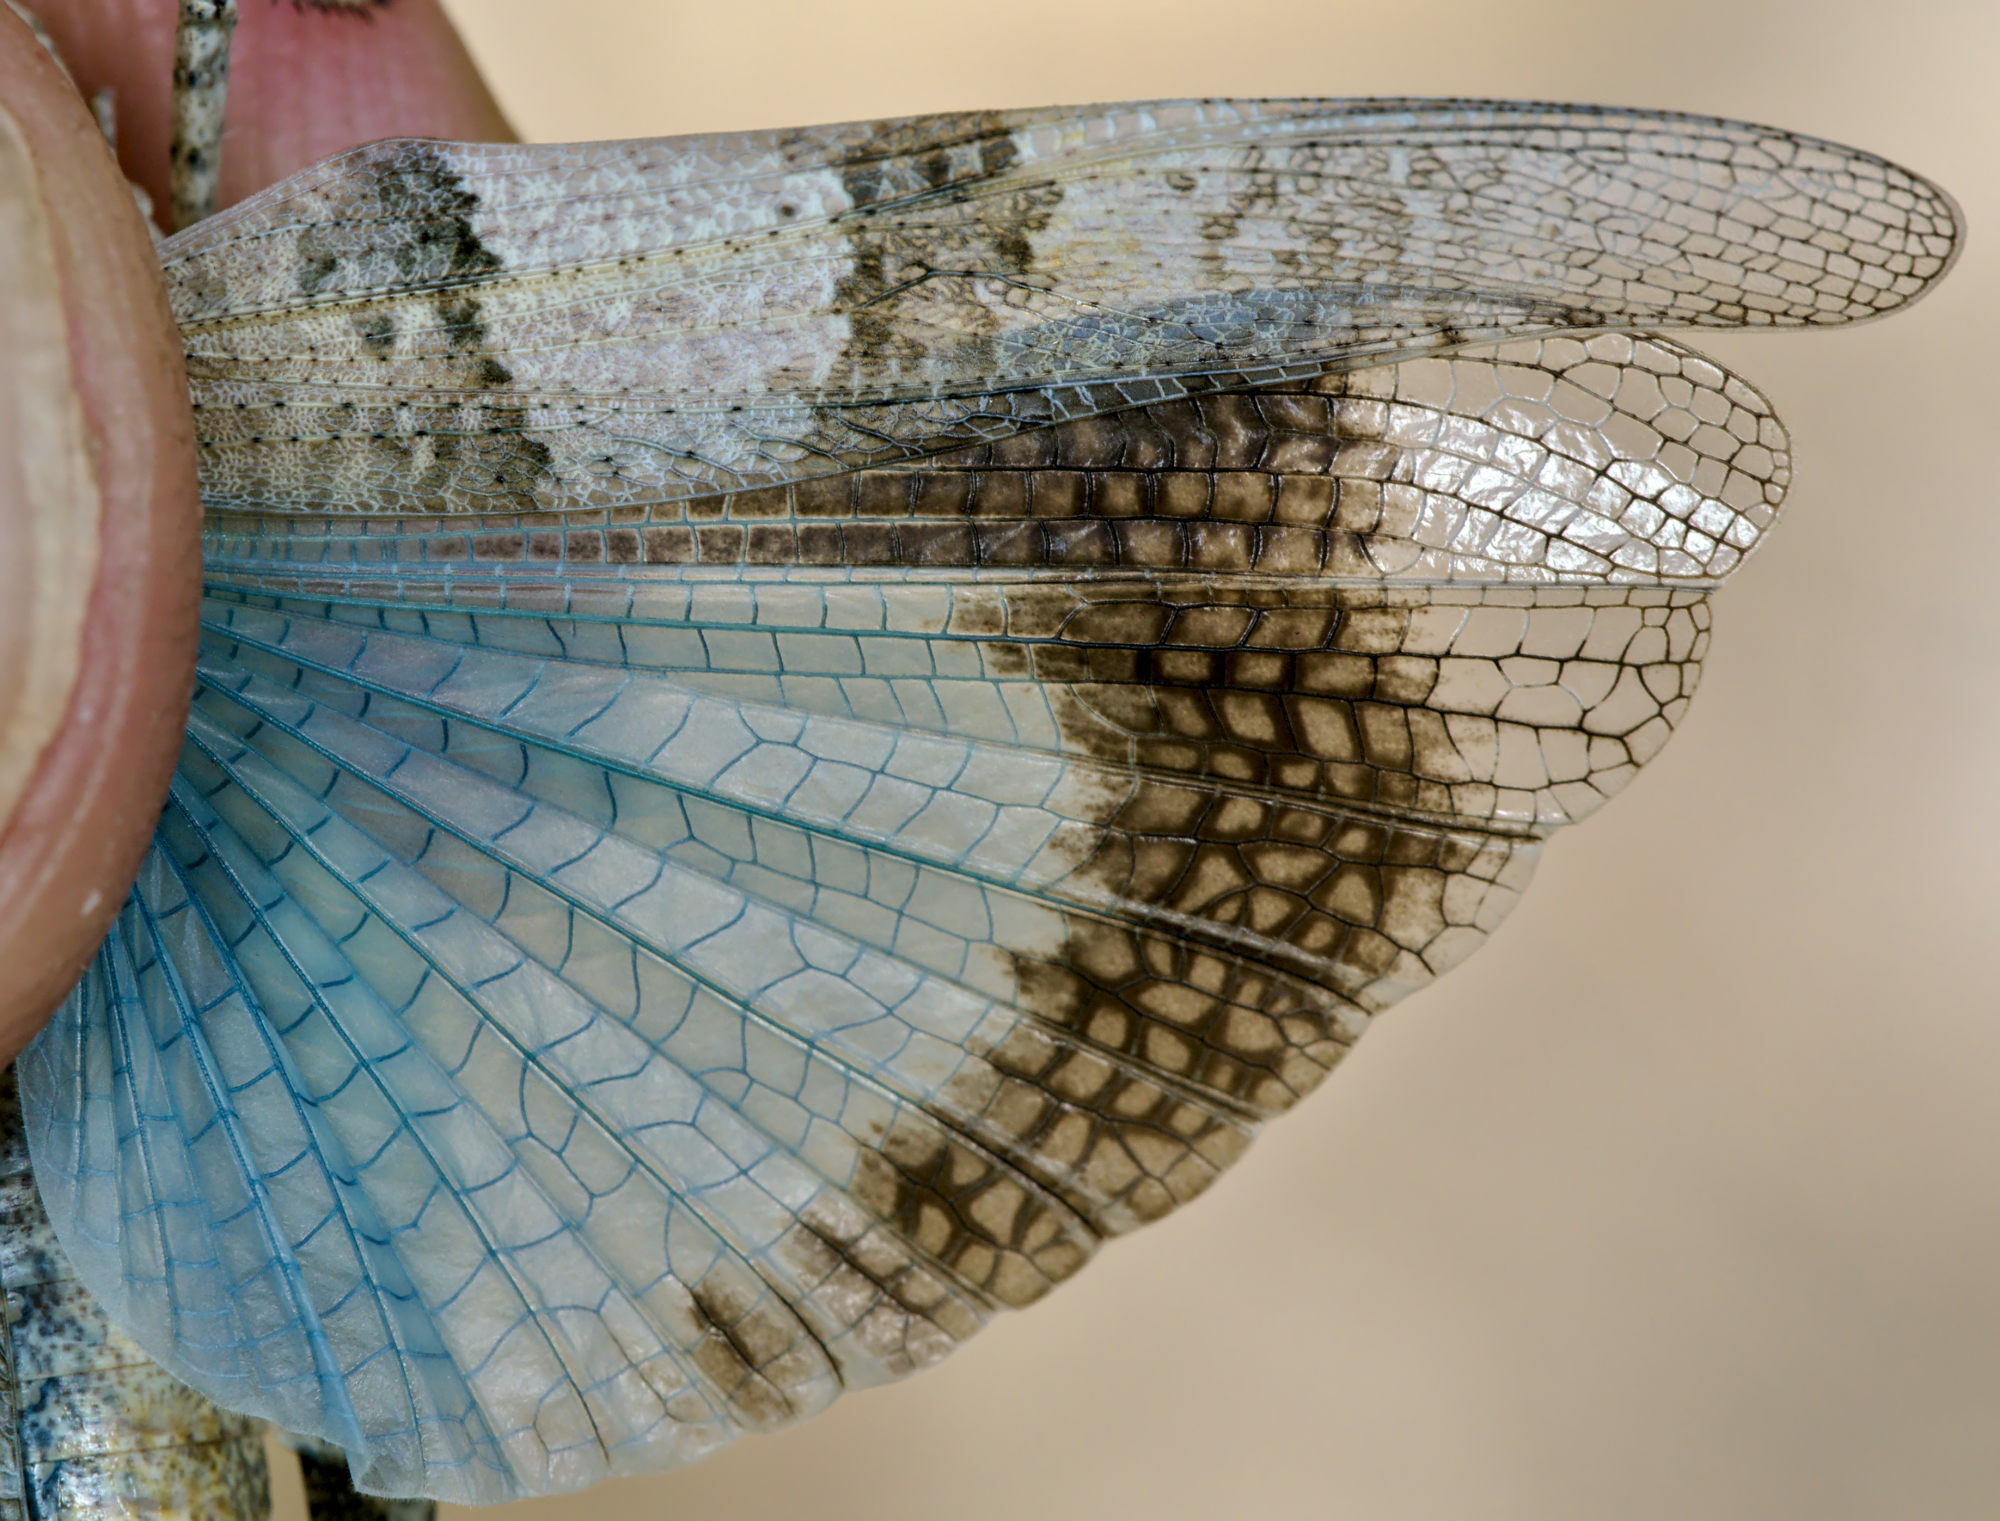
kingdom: Animalia
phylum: Arthropoda
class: Insecta
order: Orthoptera
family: Acrididae
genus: Oedipoda
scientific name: Oedipoda caerulescens
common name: Blue-winged grasshopper
